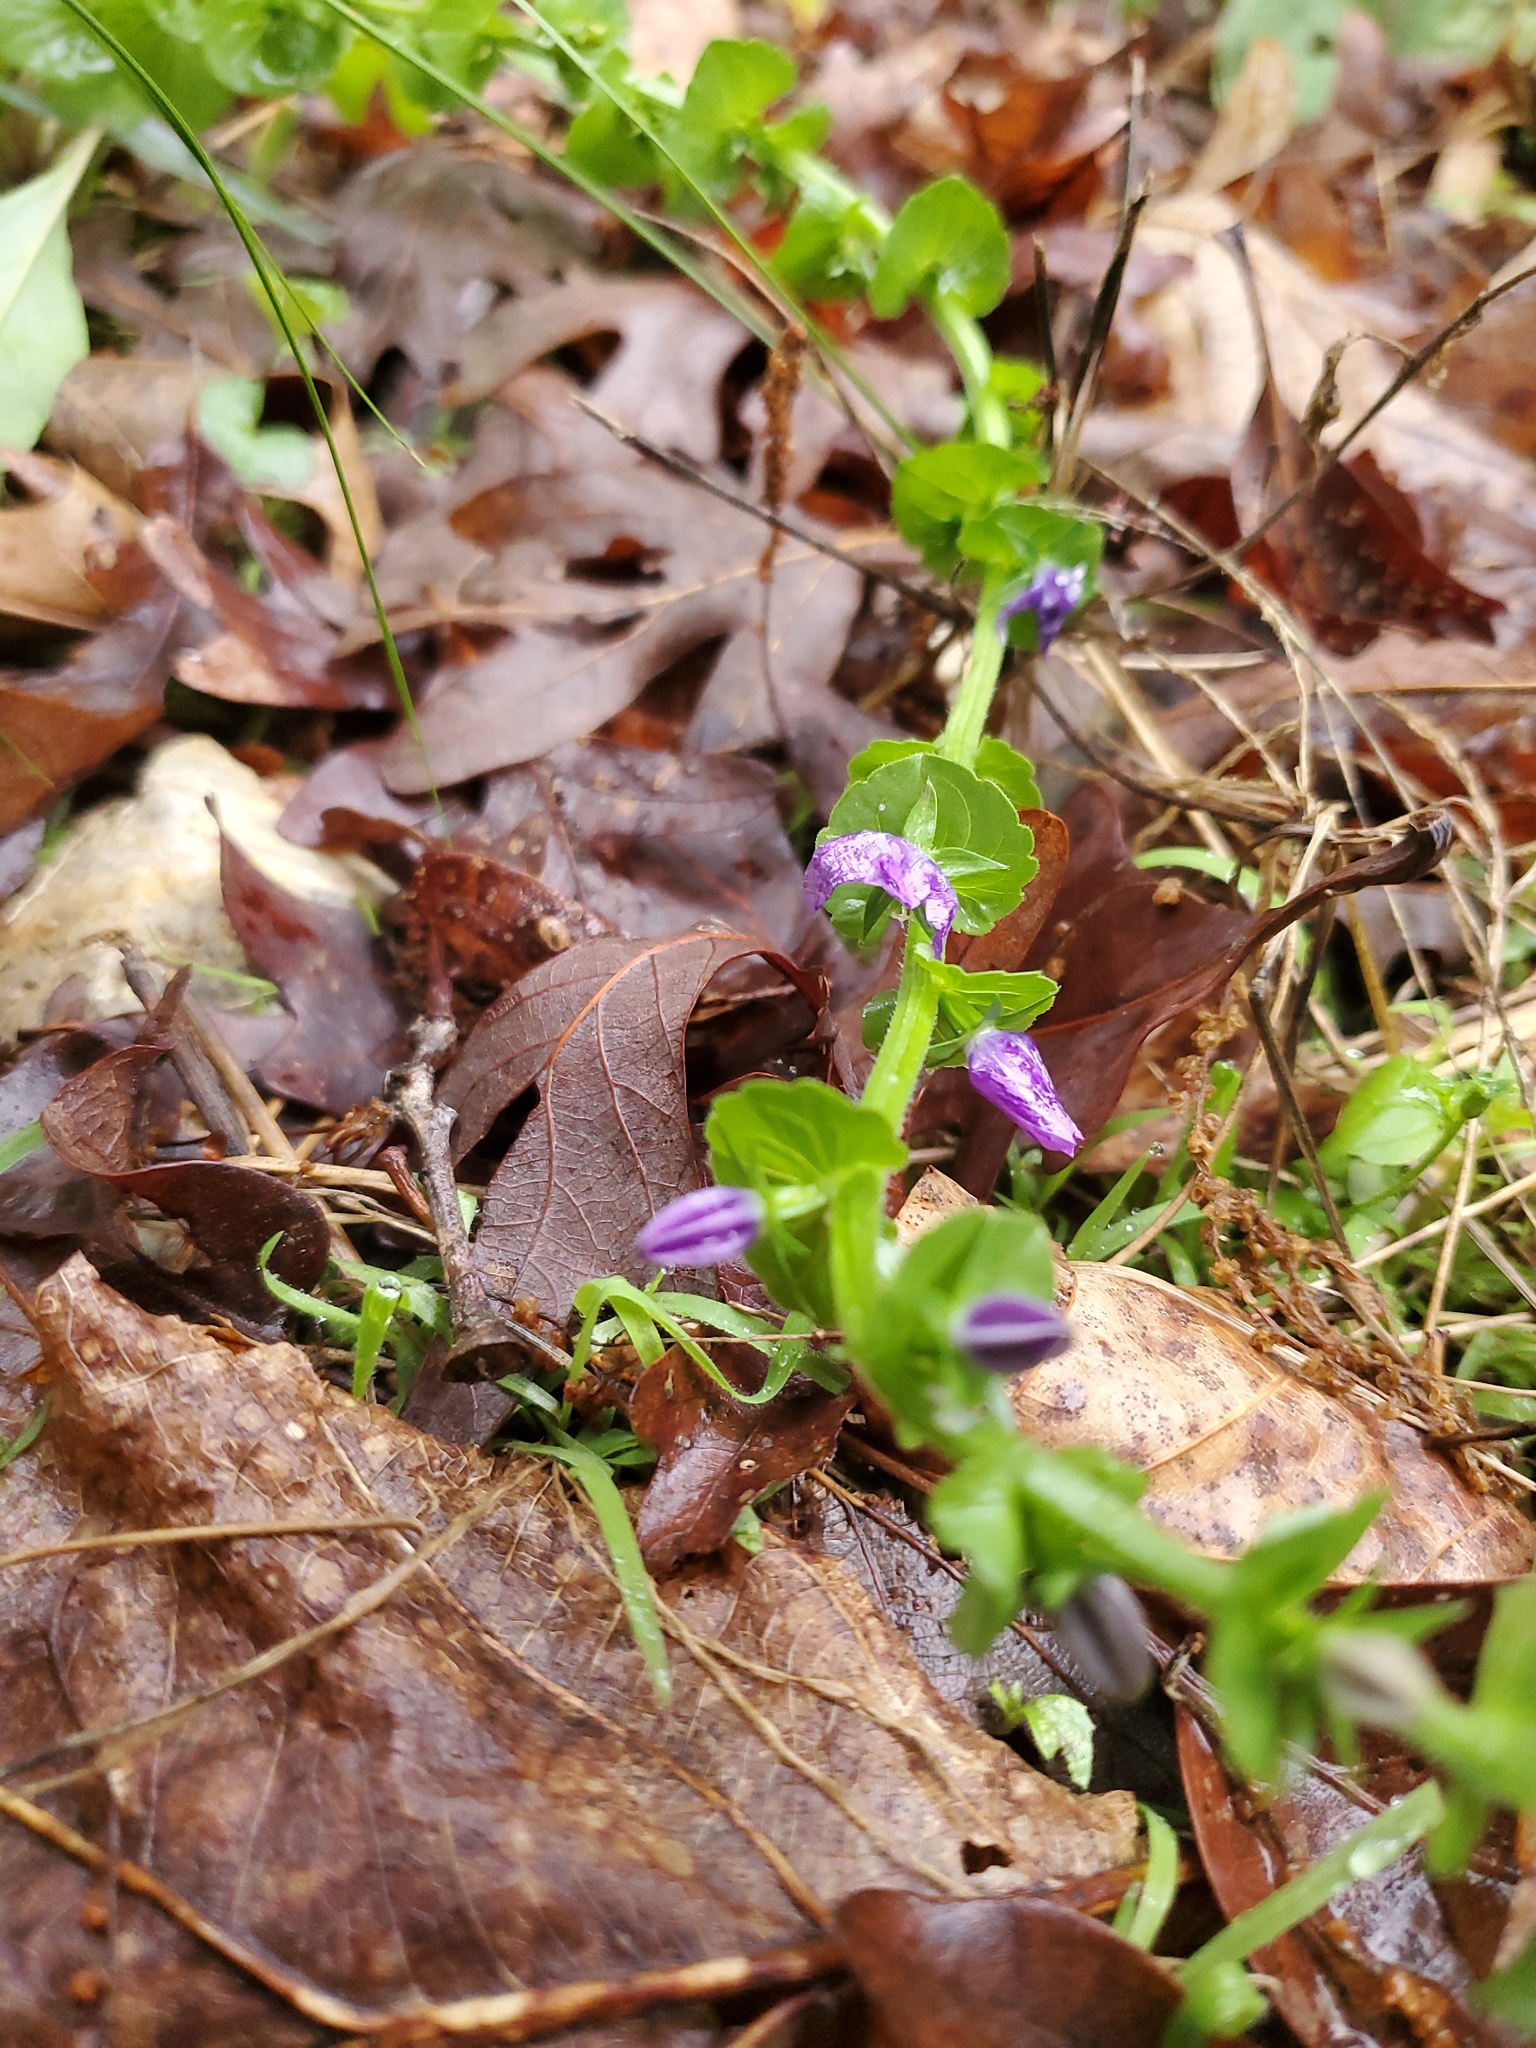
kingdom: Plantae
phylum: Tracheophyta
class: Magnoliopsida
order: Asterales
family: Campanulaceae
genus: Triodanis
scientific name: Triodanis perfoliata
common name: Clasping venus' looking-glass
